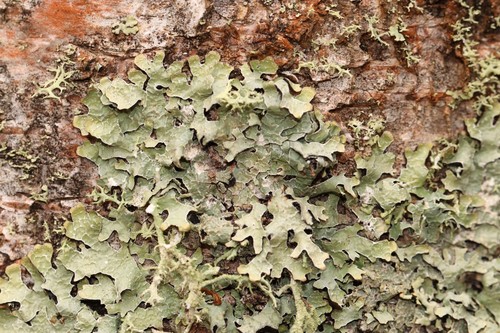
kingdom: Fungi
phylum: Ascomycota
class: Lecanoromycetes
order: Lecanorales
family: Parmeliaceae
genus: Parmelia
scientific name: Parmelia sulcata
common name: Netted shield lichen
